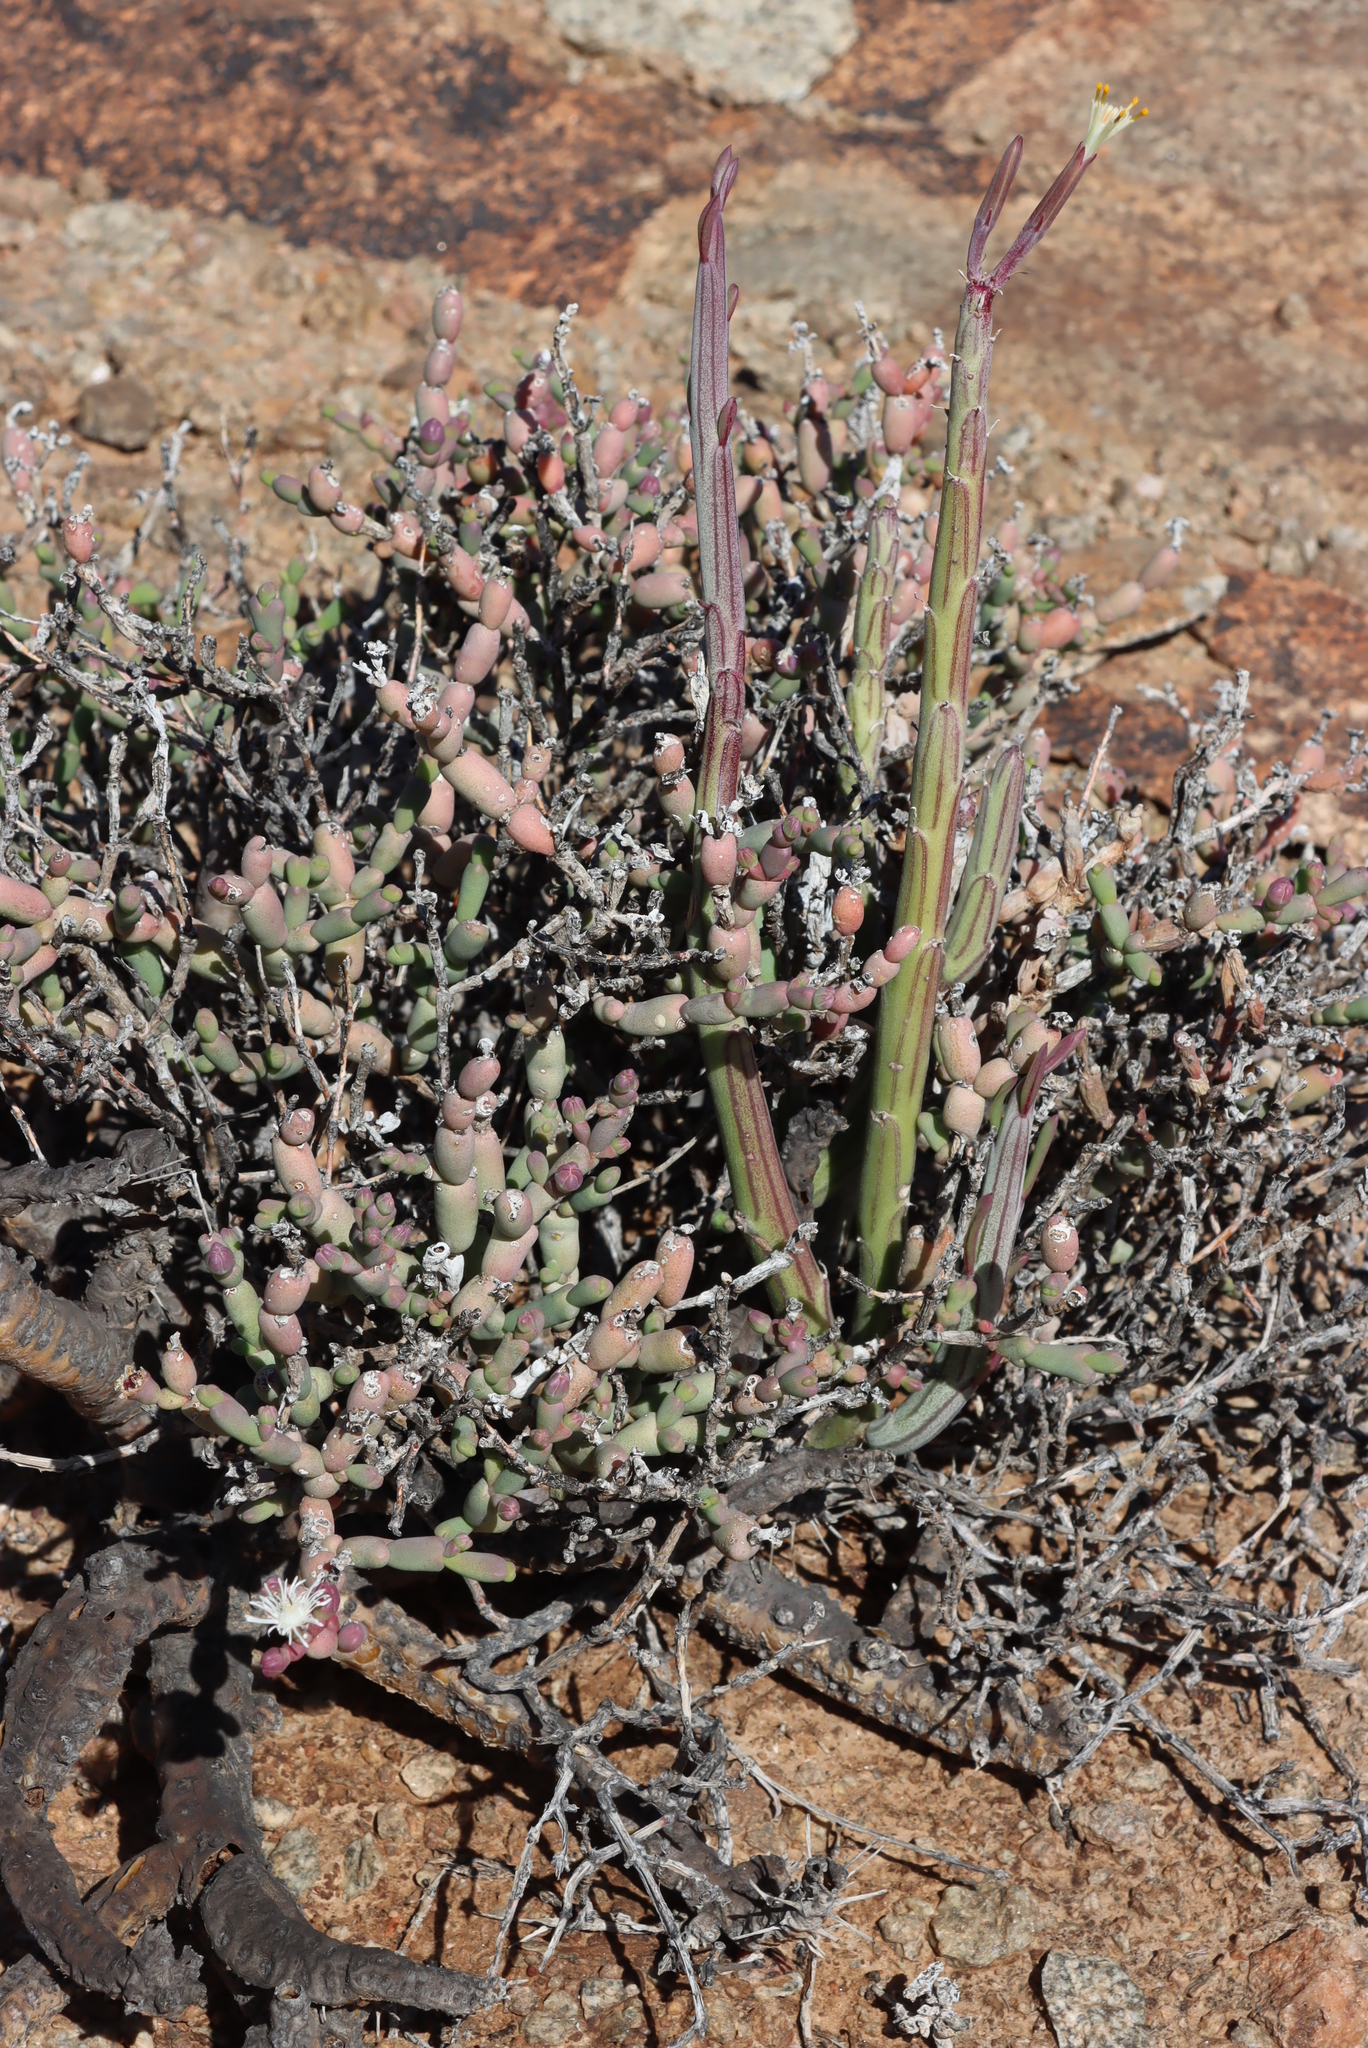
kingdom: Plantae
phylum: Tracheophyta
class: Magnoliopsida
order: Asterales
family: Asteraceae
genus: Curio
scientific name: Curio avasimontanus
